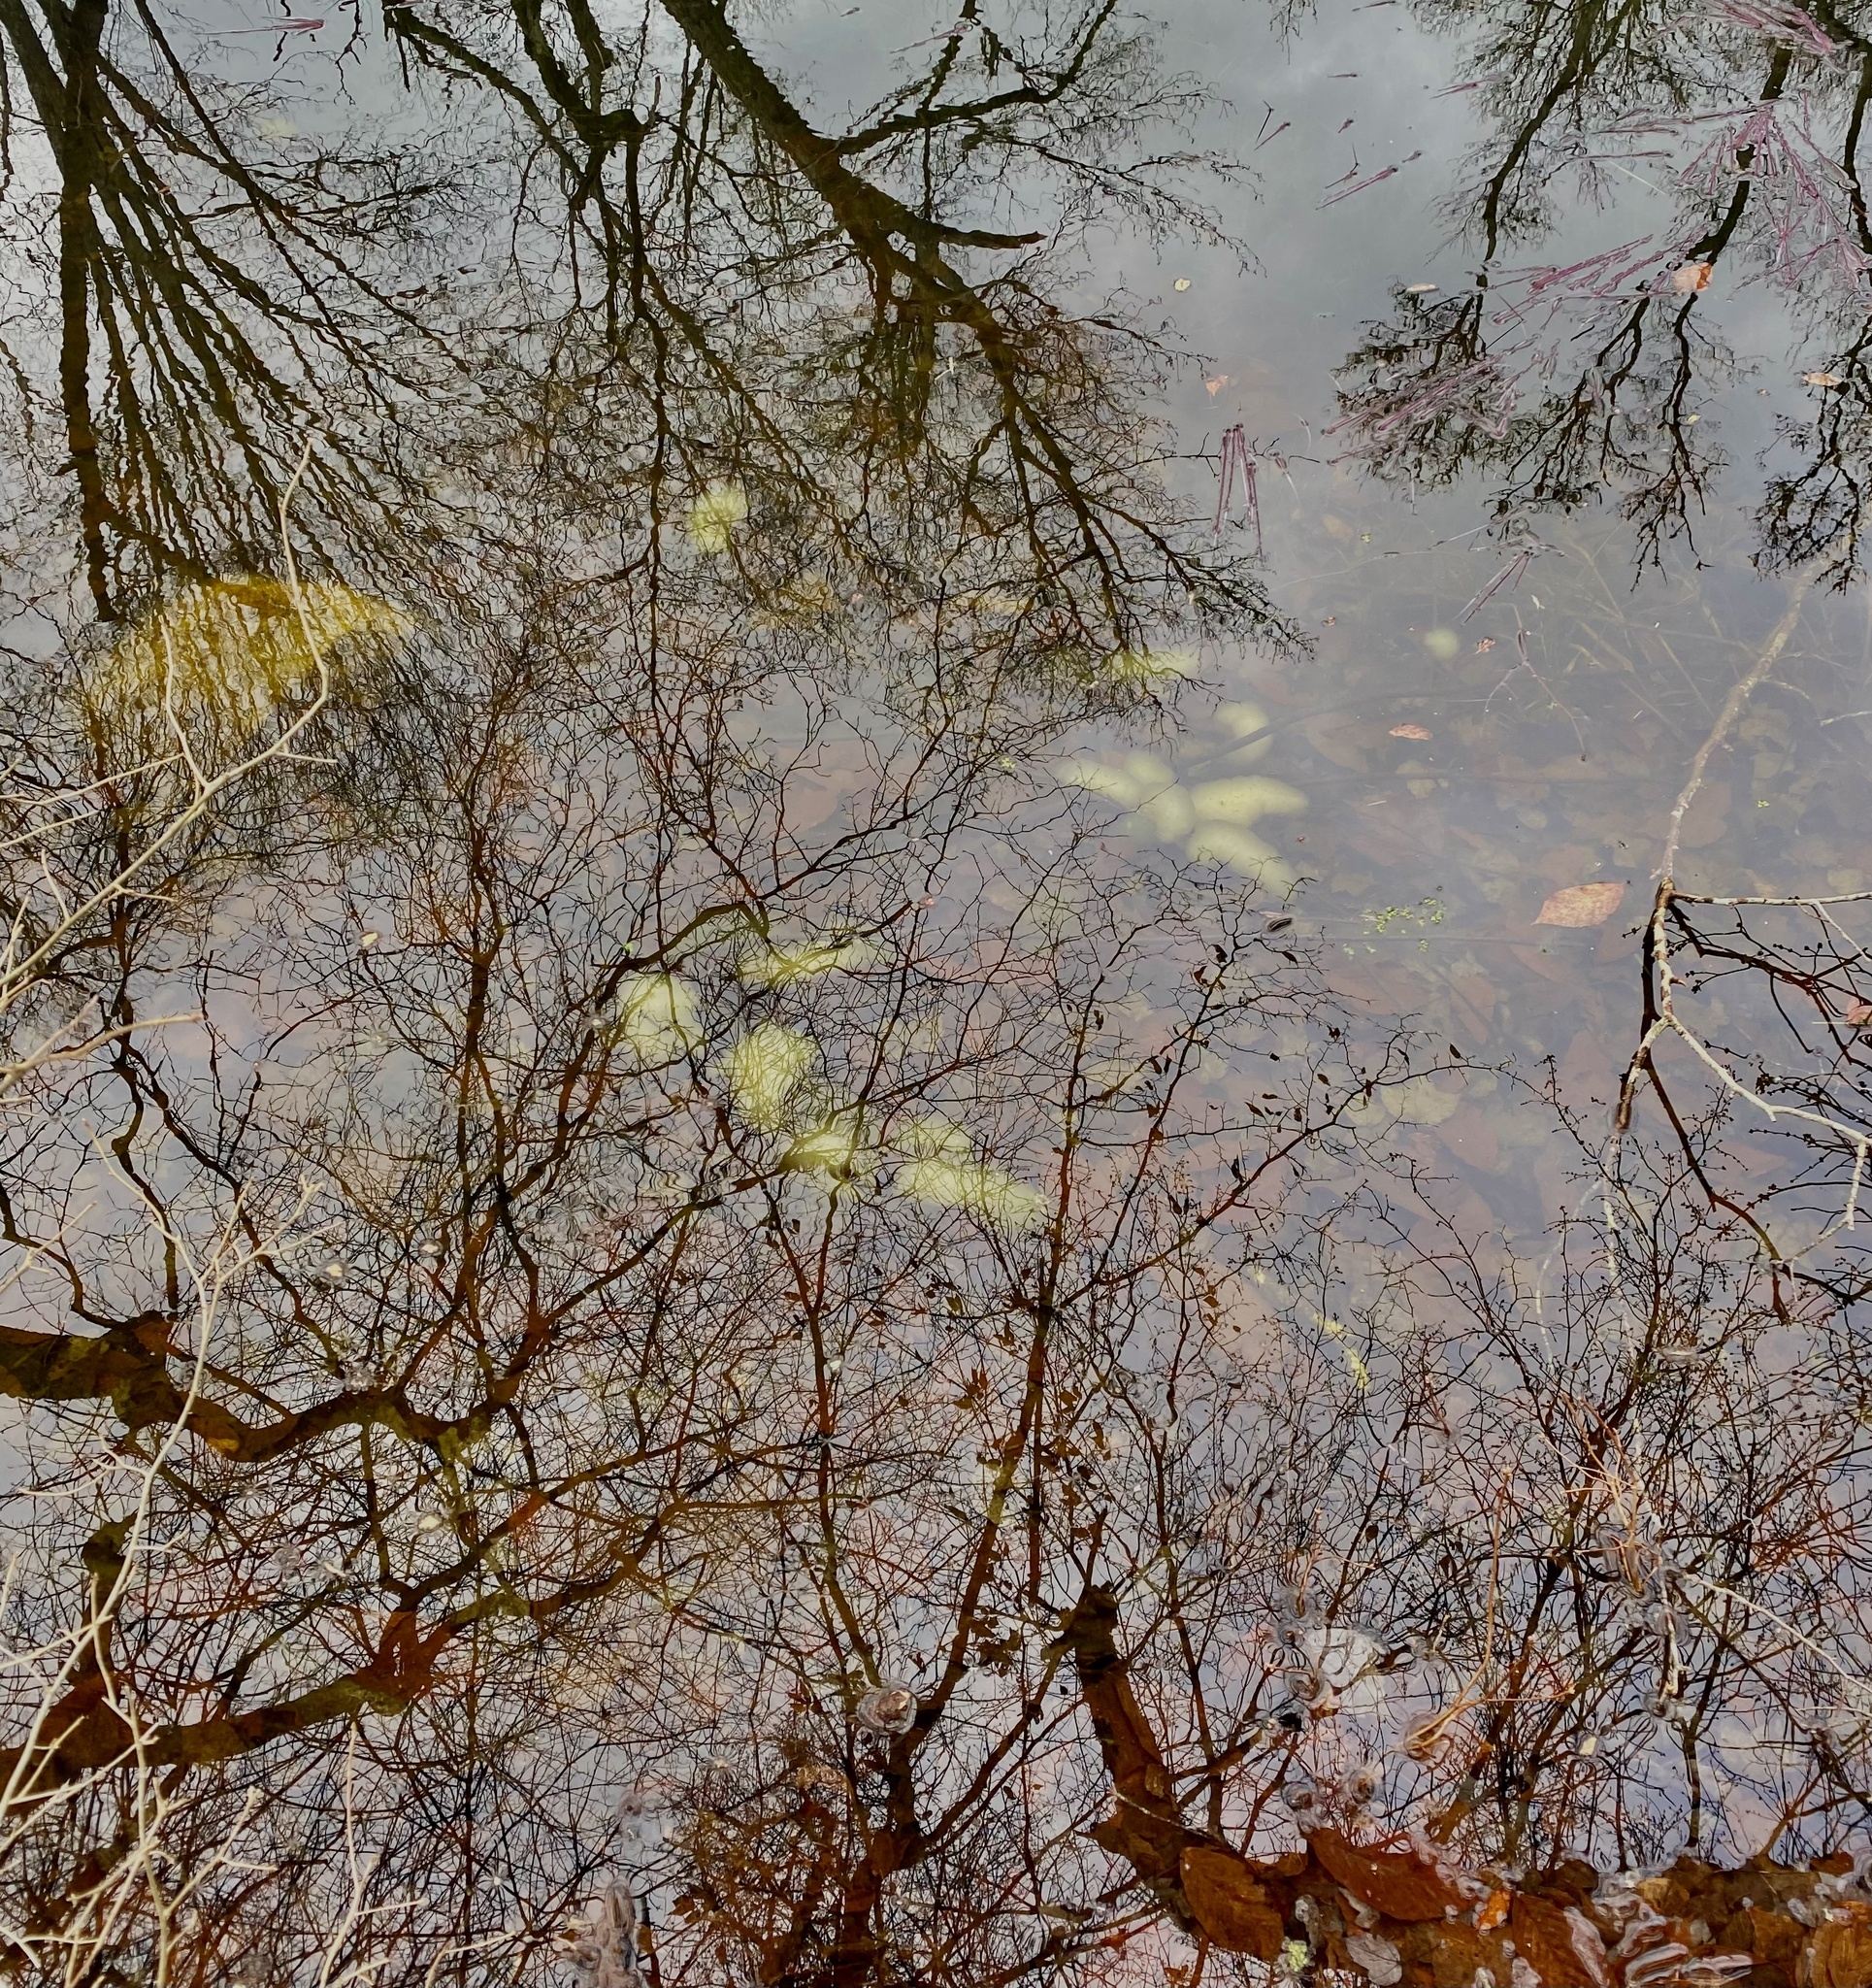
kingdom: Animalia
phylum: Chordata
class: Amphibia
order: Caudata
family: Ambystomatidae
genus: Ambystoma
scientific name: Ambystoma maculatum
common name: Spotted salamander
